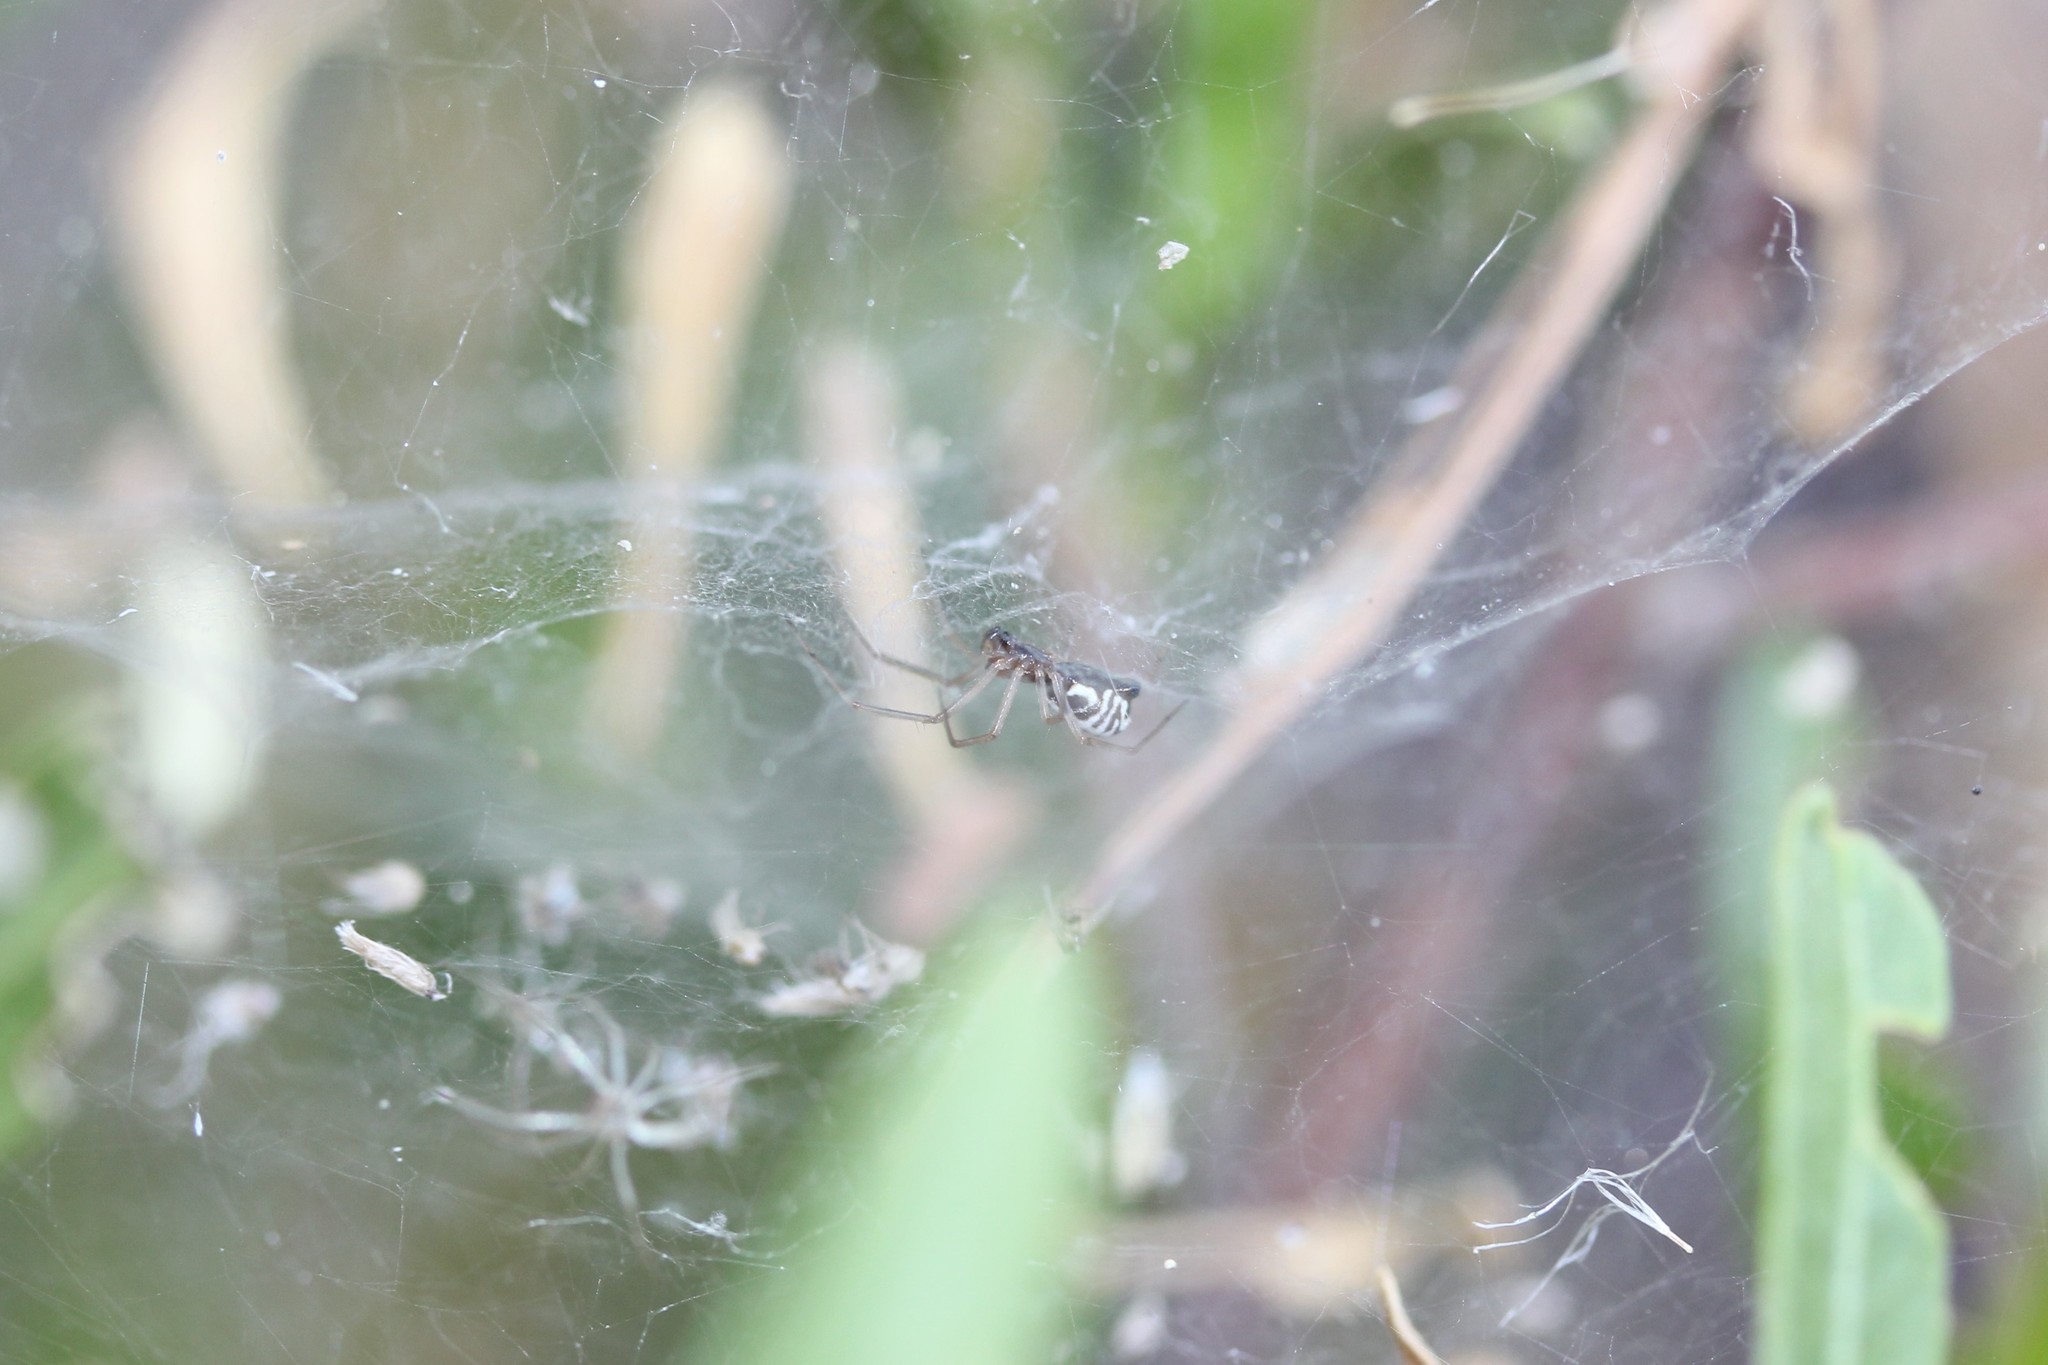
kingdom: Animalia
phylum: Arthropoda
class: Arachnida
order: Araneae
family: Linyphiidae
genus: Frontinella
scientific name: Frontinella pyramitela
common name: Bowl-and-doily spider
